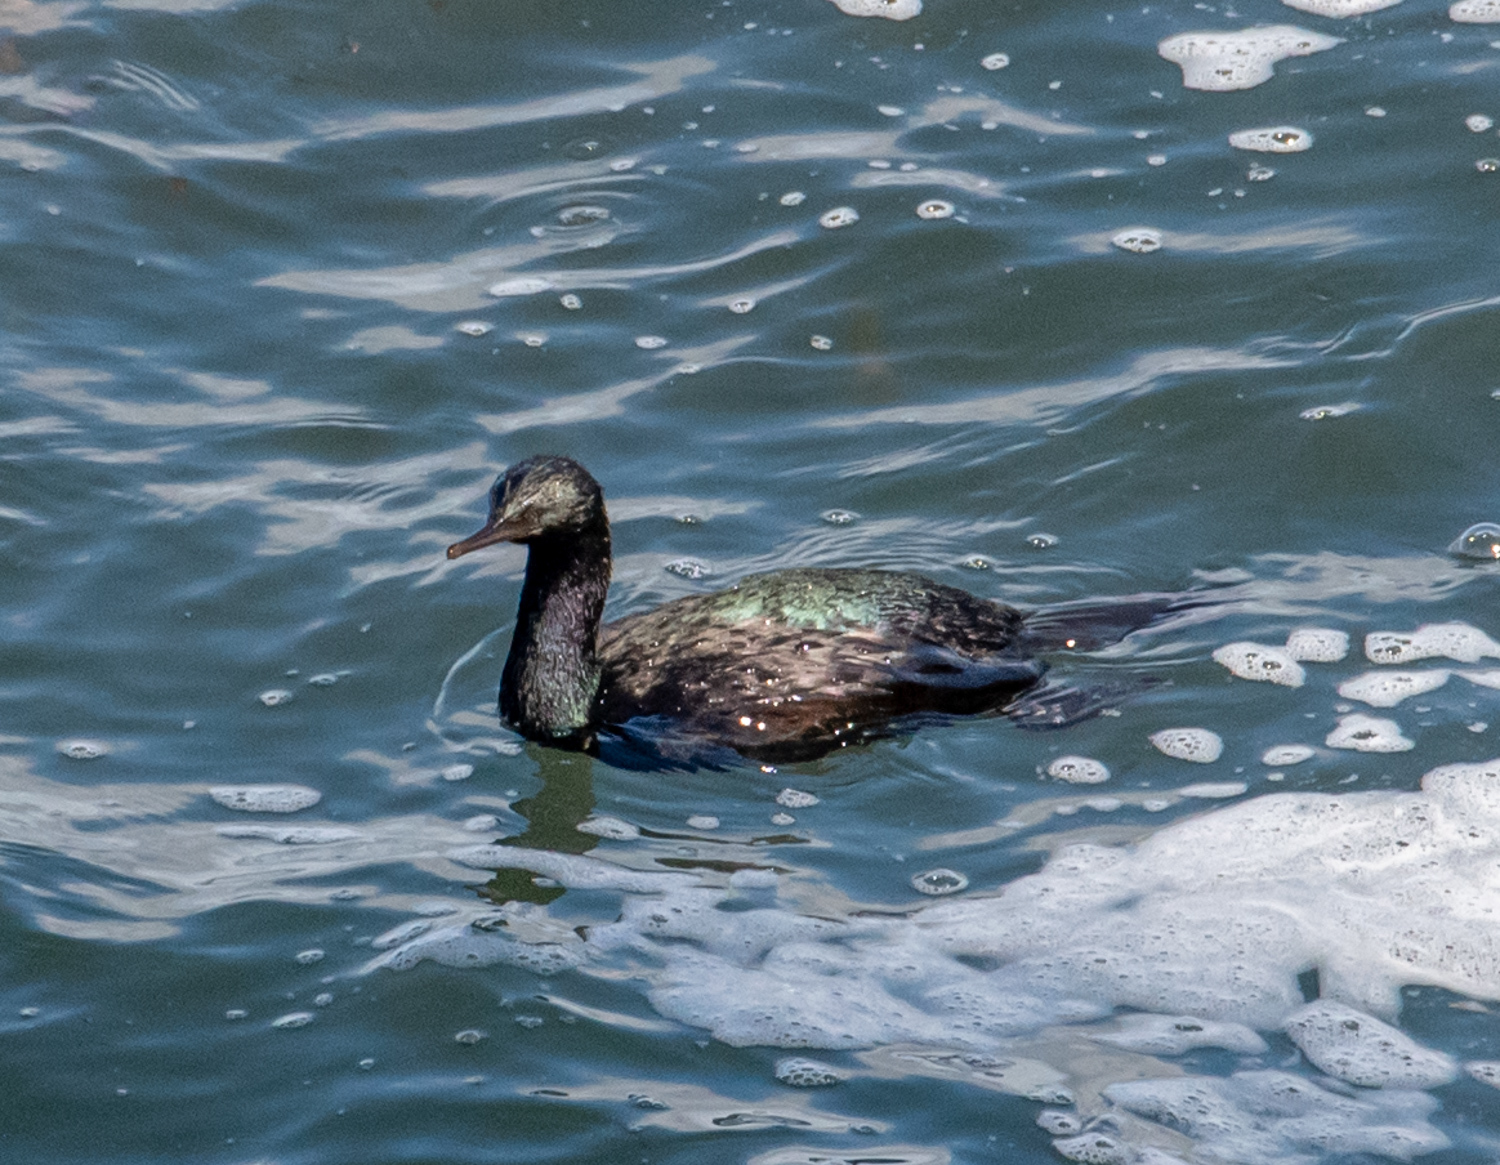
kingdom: Animalia
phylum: Chordata
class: Aves
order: Suliformes
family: Phalacrocoracidae
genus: Phalacrocorax
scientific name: Phalacrocorax pelagicus
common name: Pelagic cormorant
